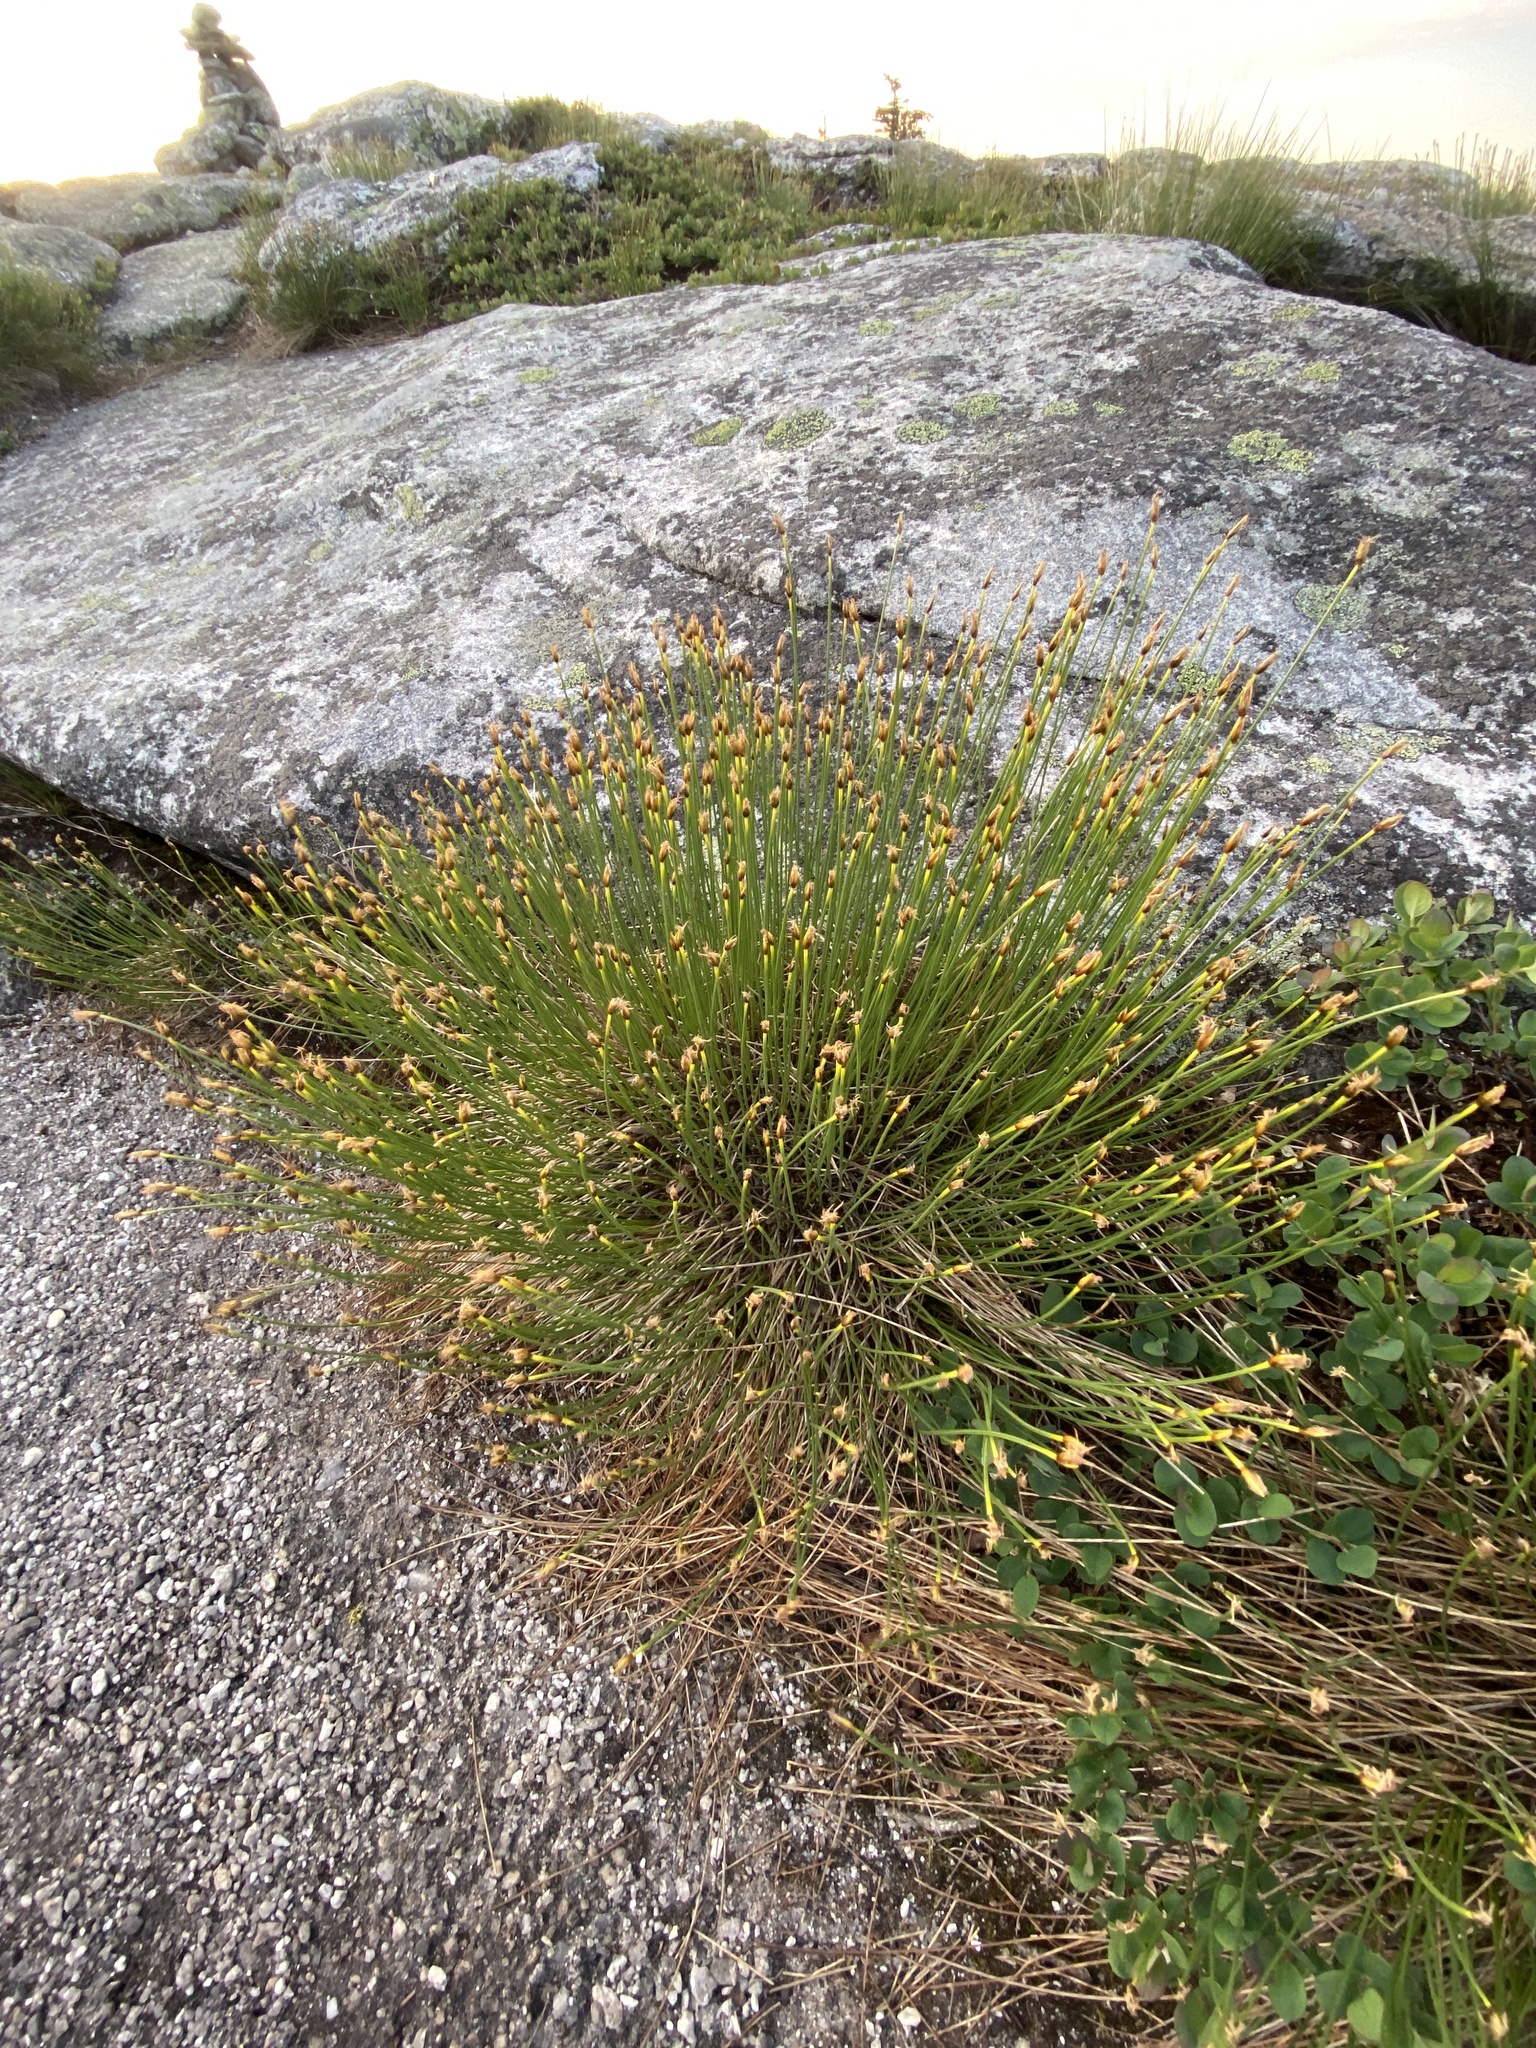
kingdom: Plantae
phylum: Tracheophyta
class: Liliopsida
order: Poales
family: Cyperaceae
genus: Trichophorum
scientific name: Trichophorum cespitosum
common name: Cespitose bulrush
